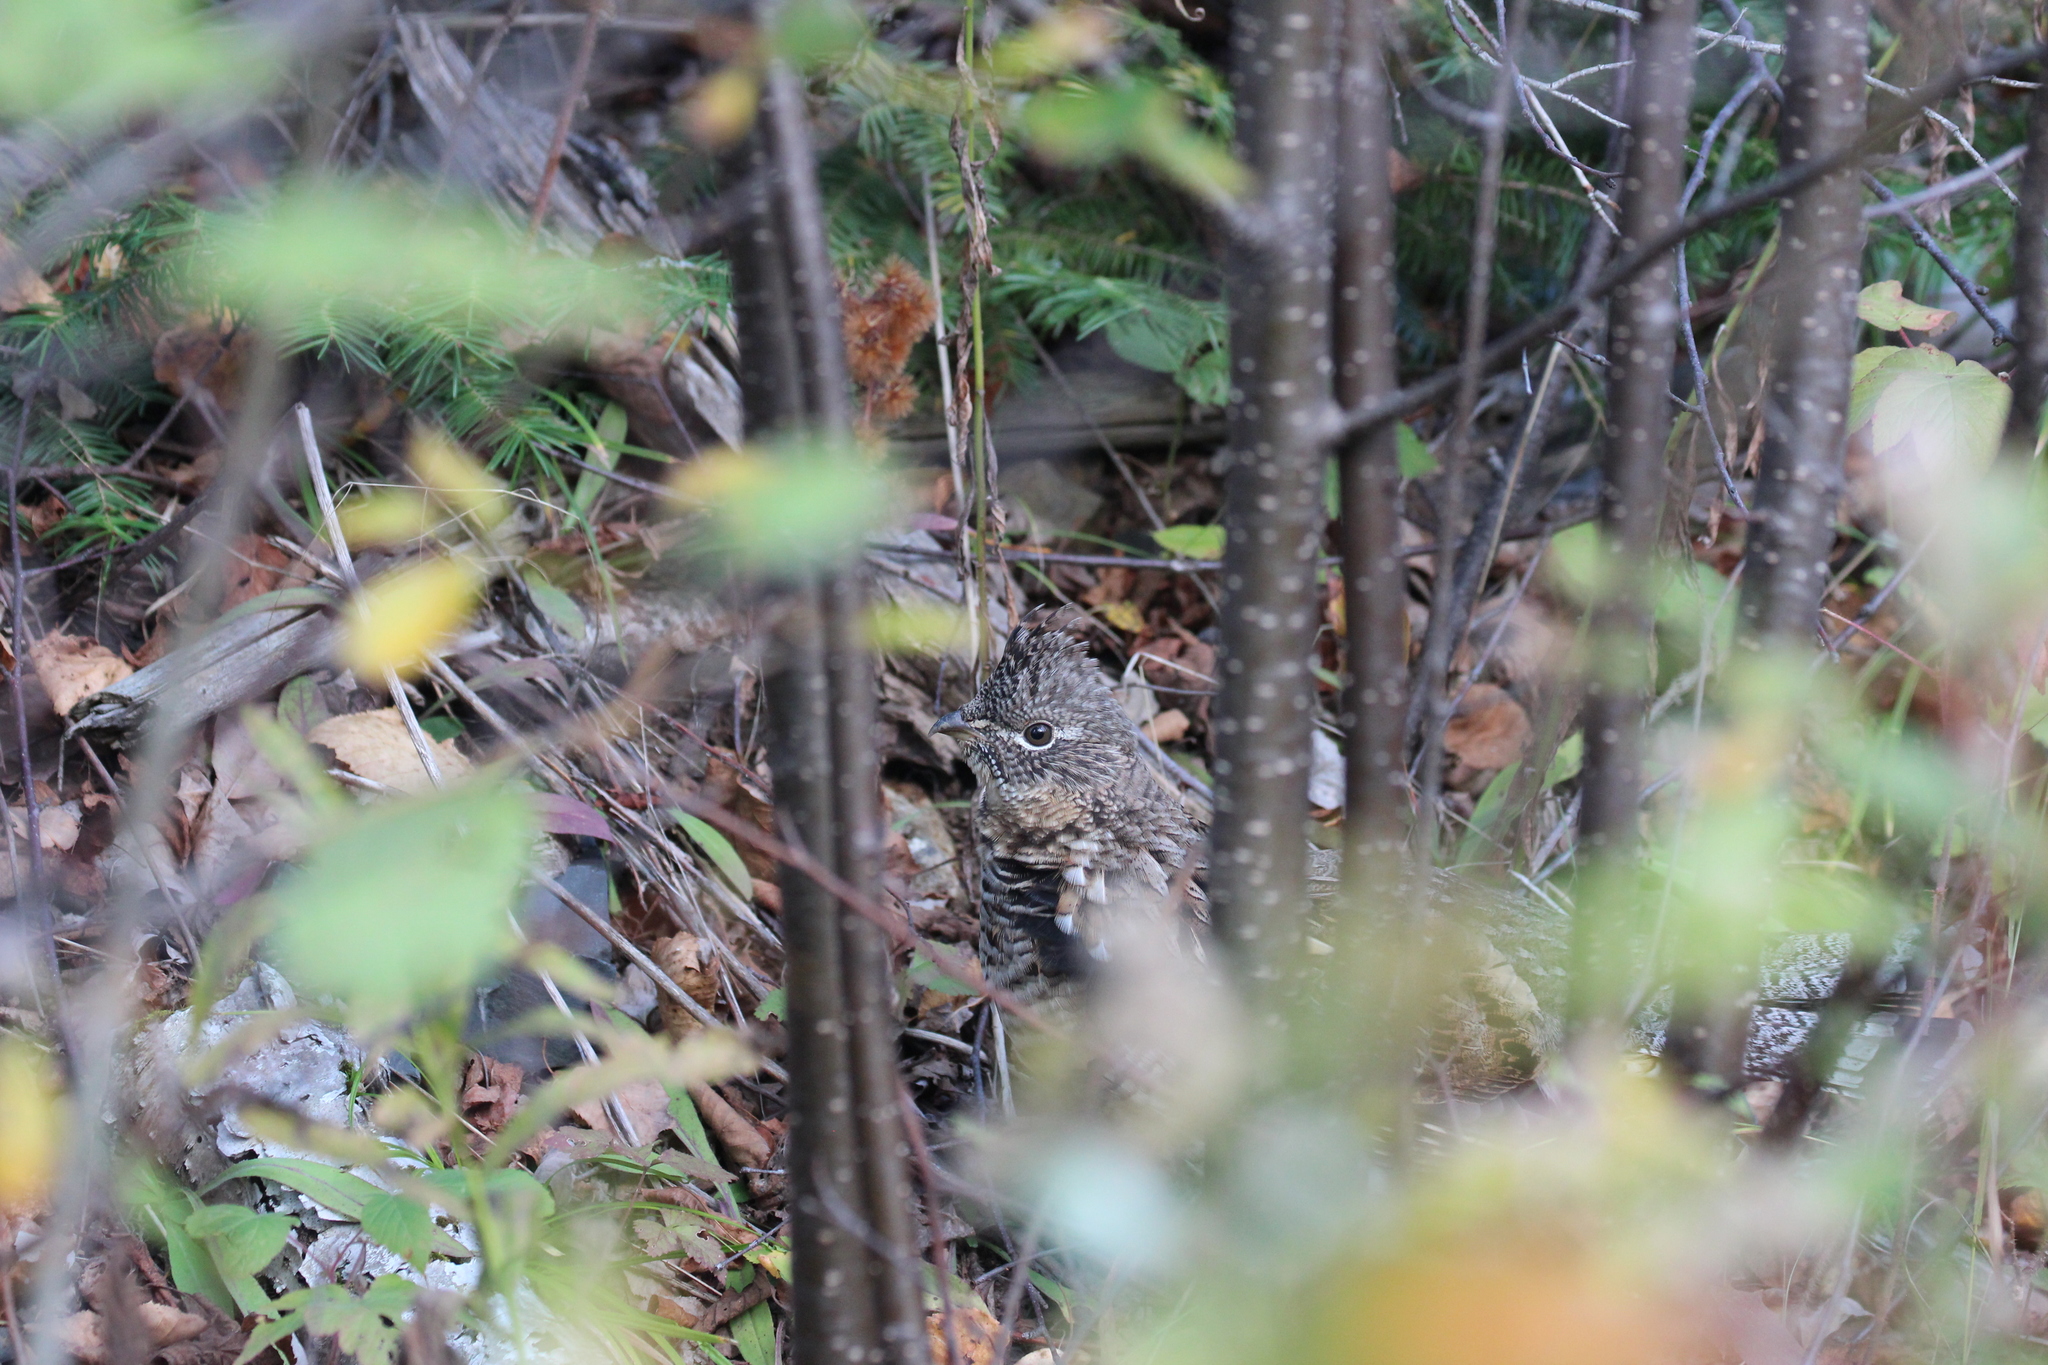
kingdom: Animalia
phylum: Chordata
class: Aves
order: Galliformes
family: Phasianidae
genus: Bonasa
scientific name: Bonasa umbellus
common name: Ruffed grouse
